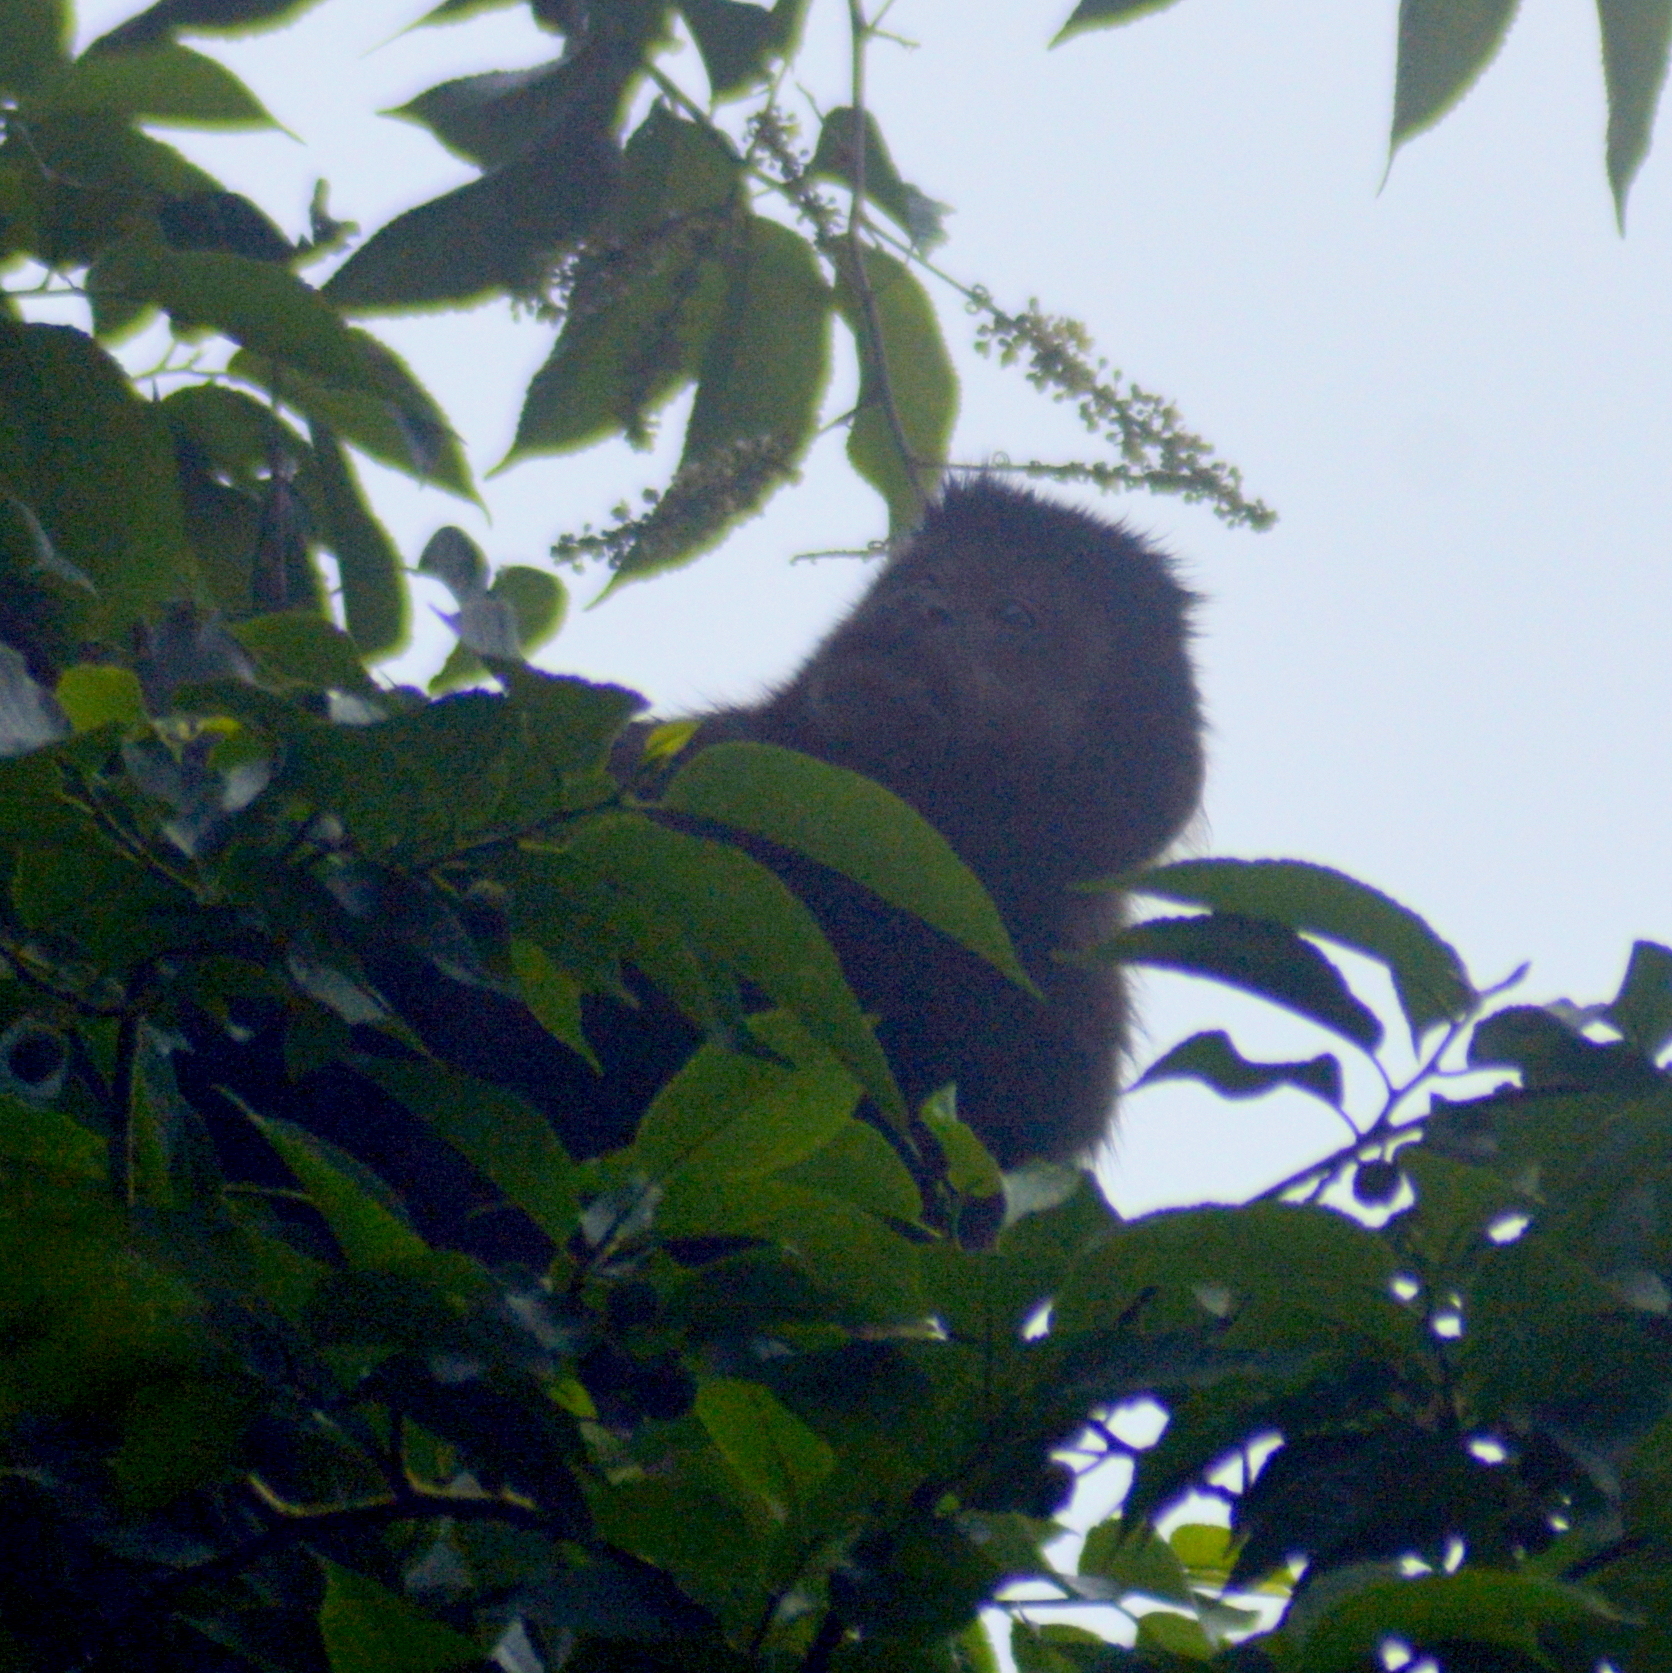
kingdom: Animalia
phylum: Chordata
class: Mammalia
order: Primates
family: Cebidae
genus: Sapajus
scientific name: Sapajus nigritus
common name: Black capuchin
